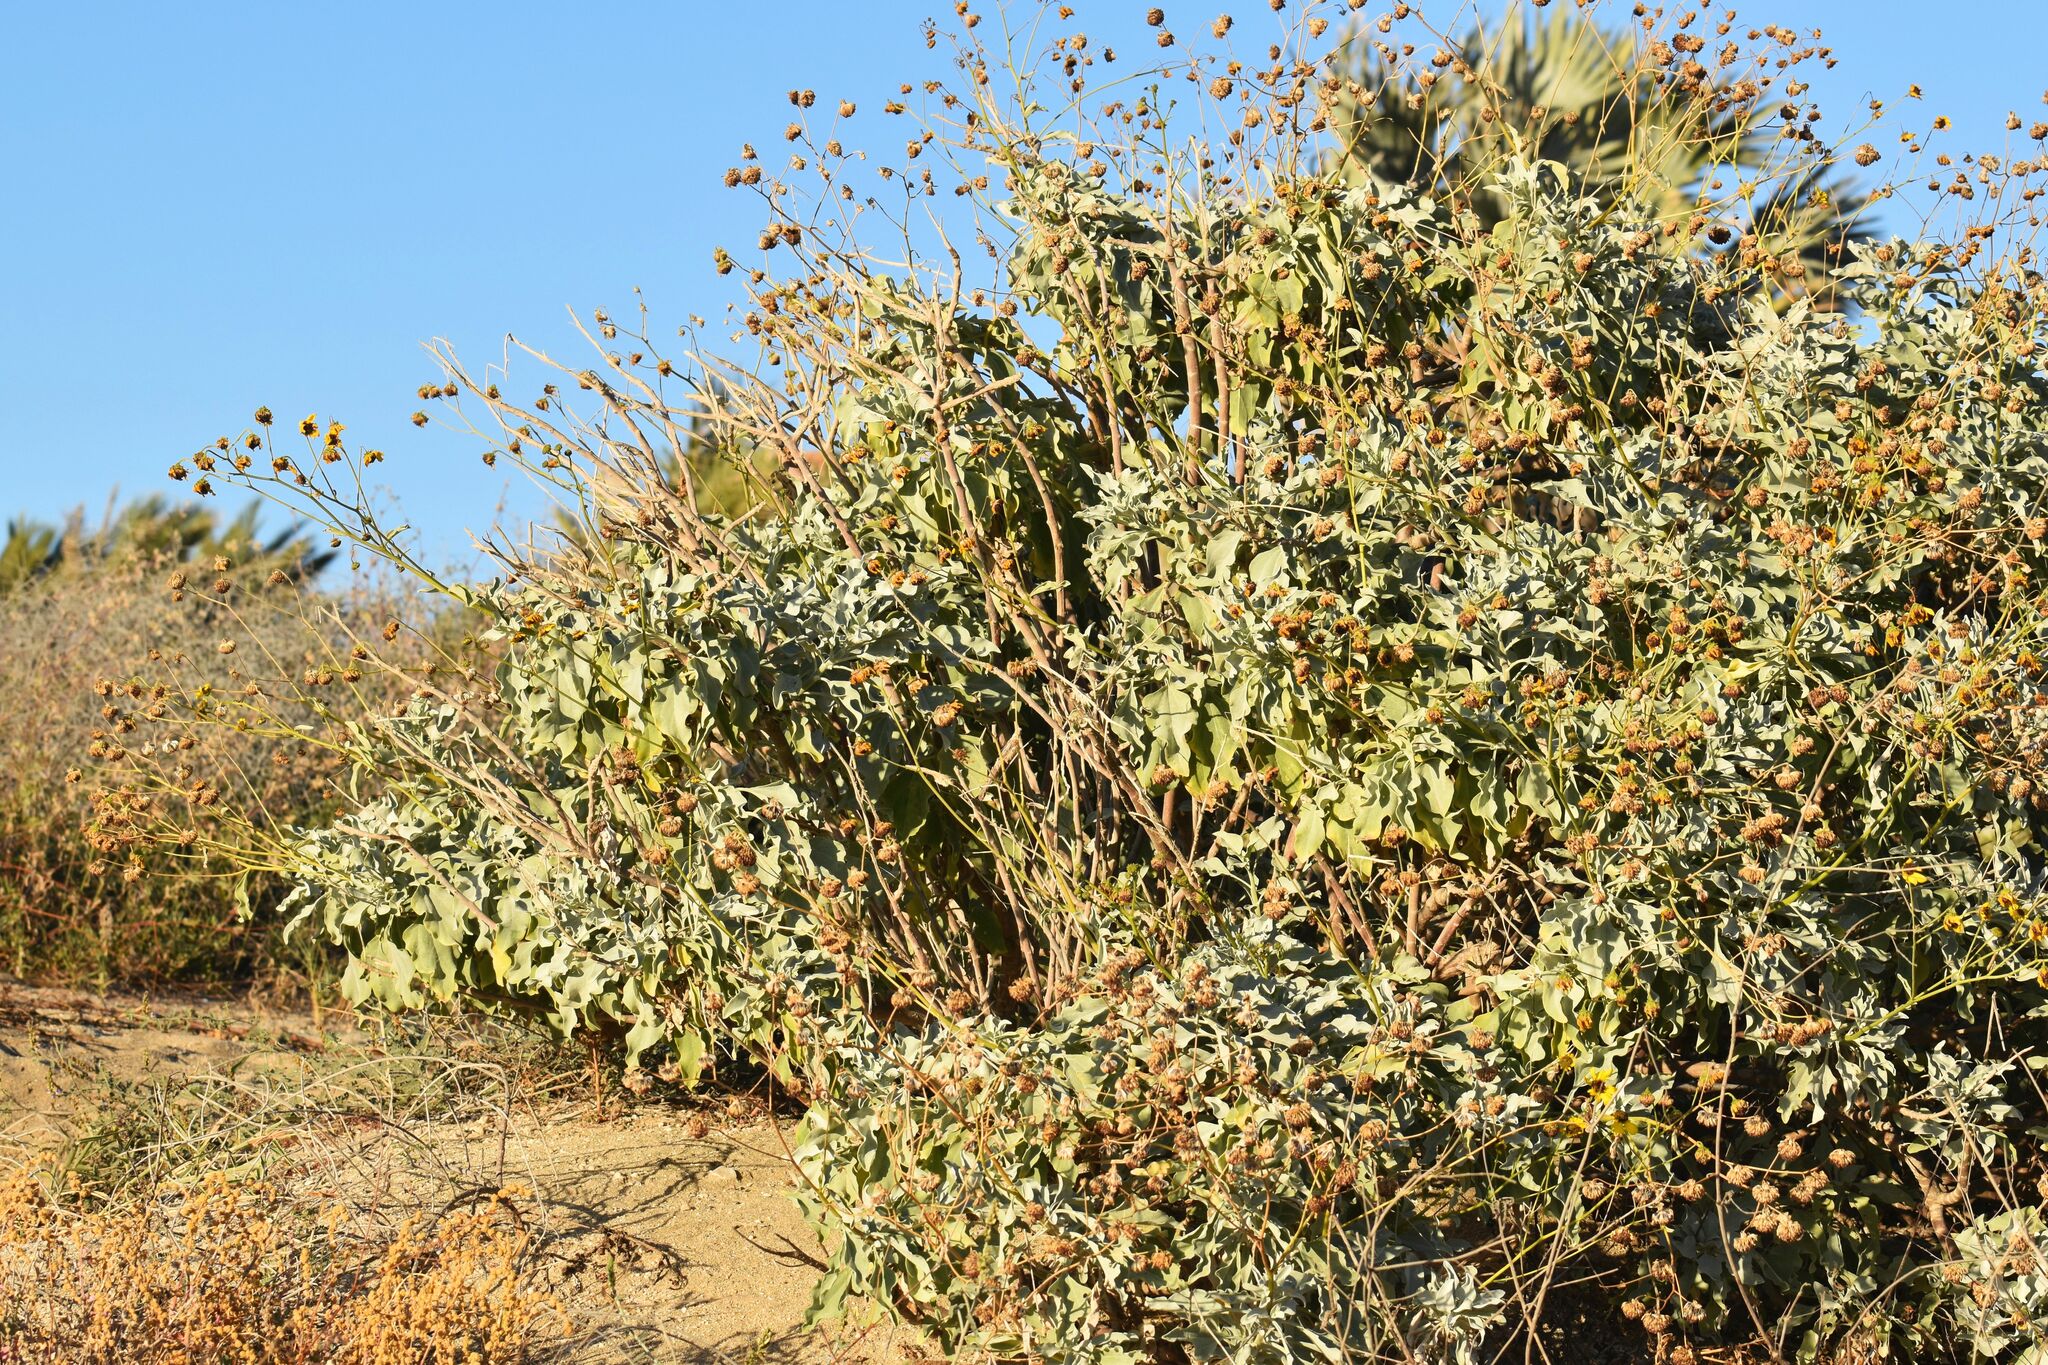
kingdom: Plantae
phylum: Tracheophyta
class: Magnoliopsida
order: Asterales
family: Asteraceae
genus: Encelia
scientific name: Encelia farinosa
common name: Brittlebush
